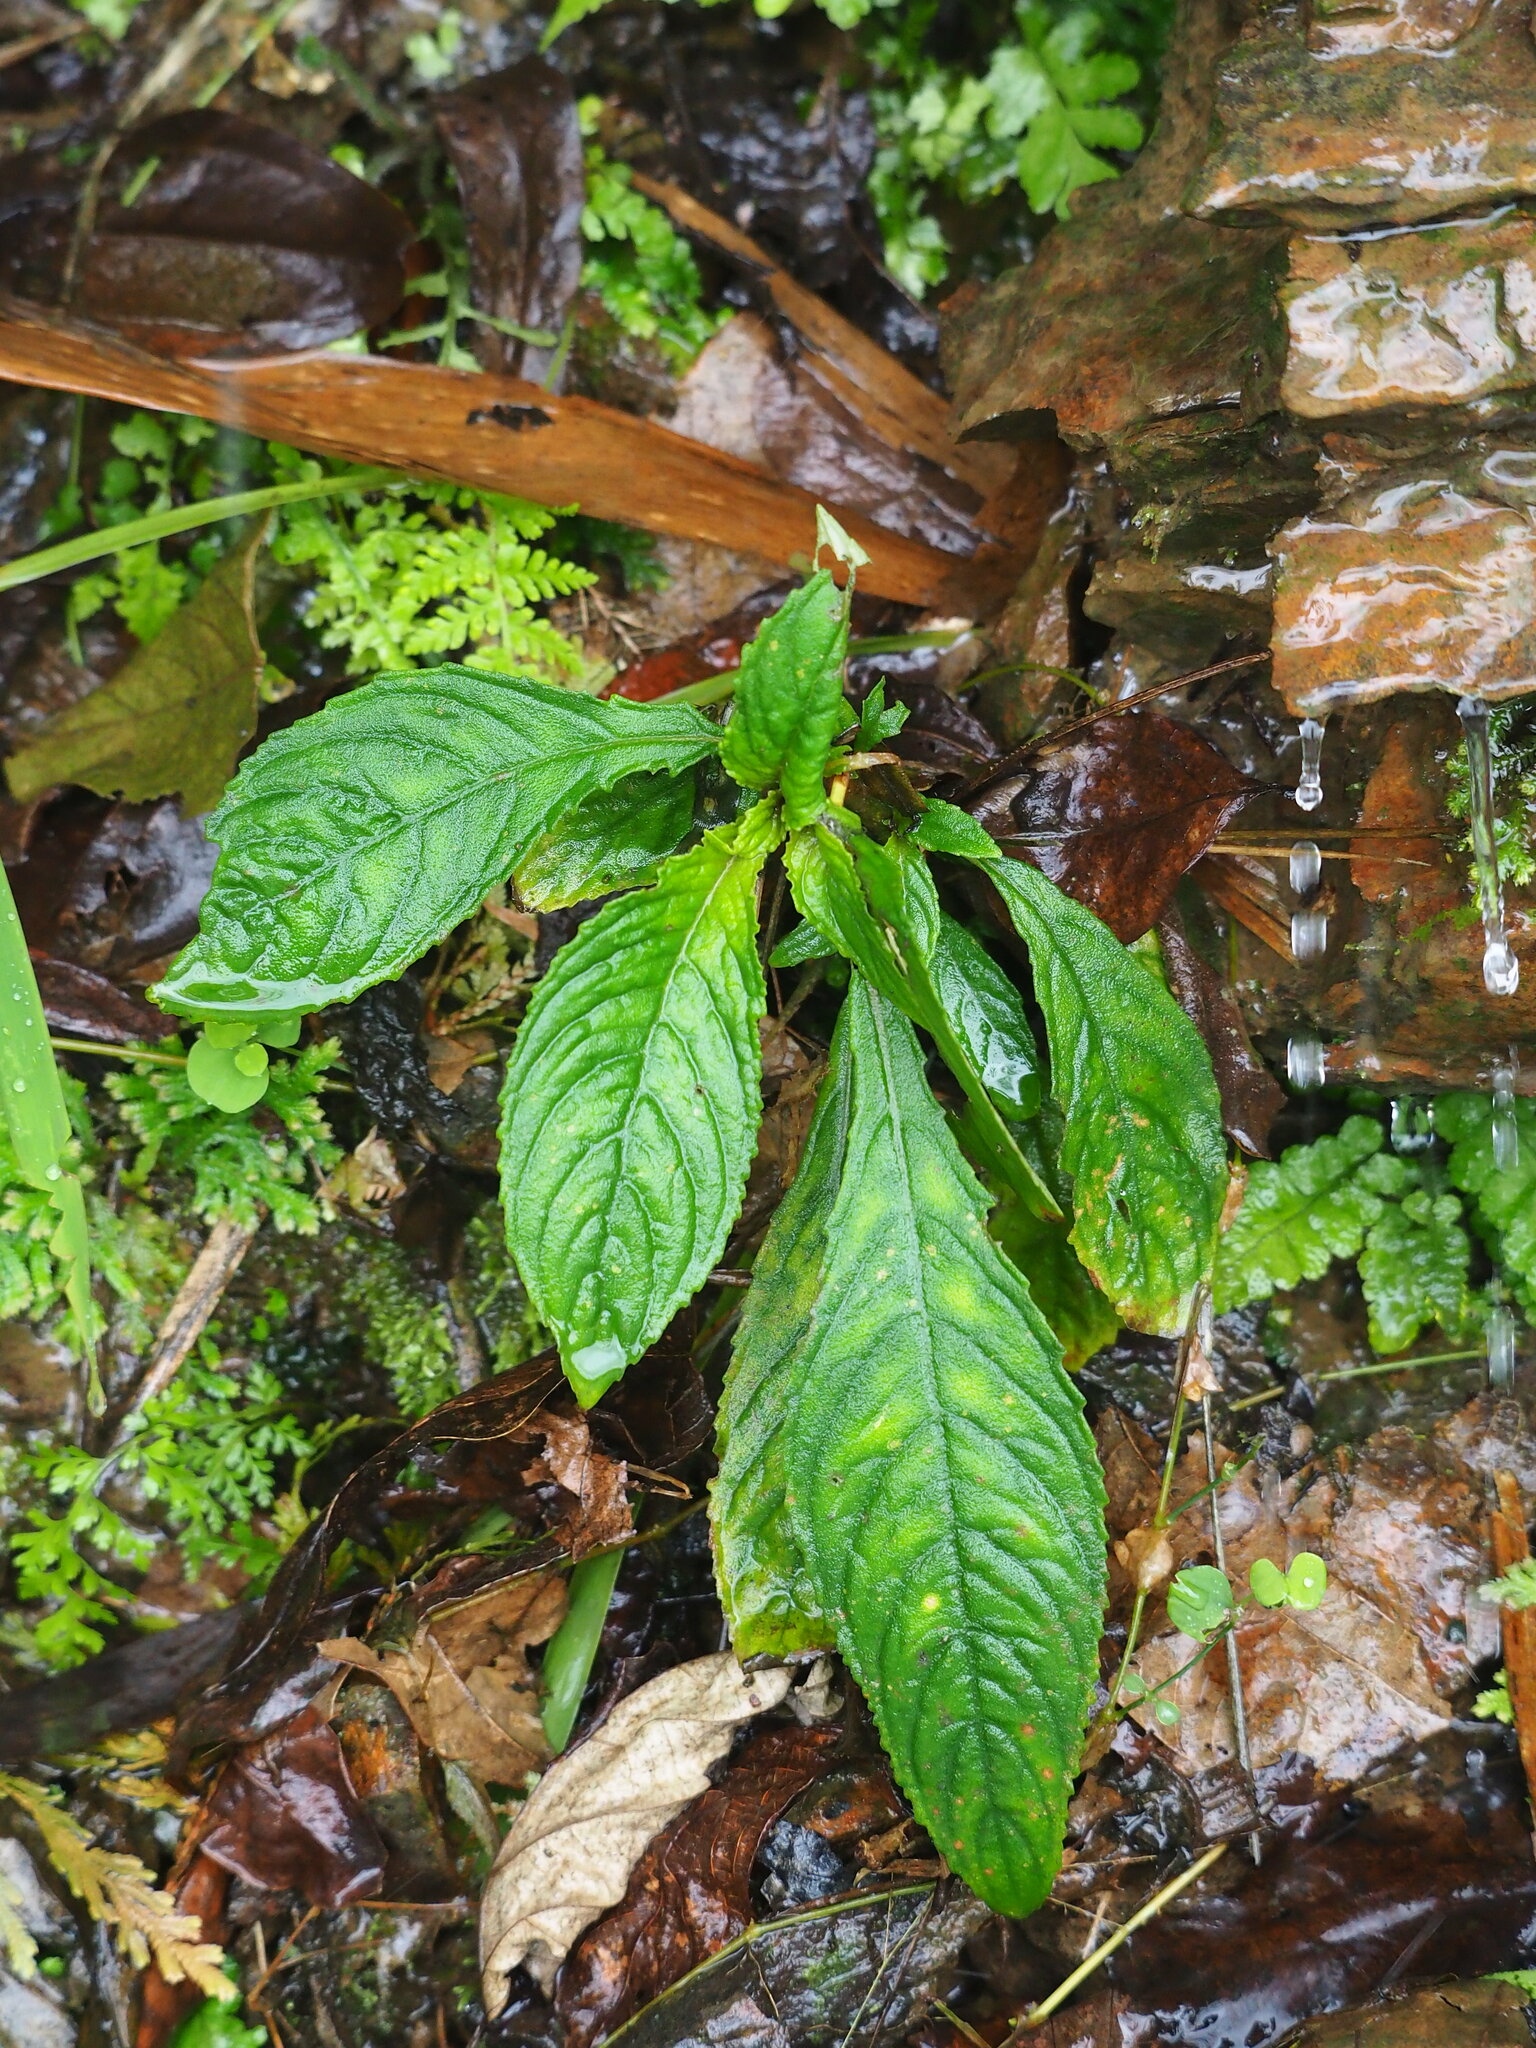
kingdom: Plantae
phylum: Tracheophyta
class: Magnoliopsida
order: Lamiales
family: Gesneriaceae
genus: Rhynchotechum
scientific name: Rhynchotechum discolor
